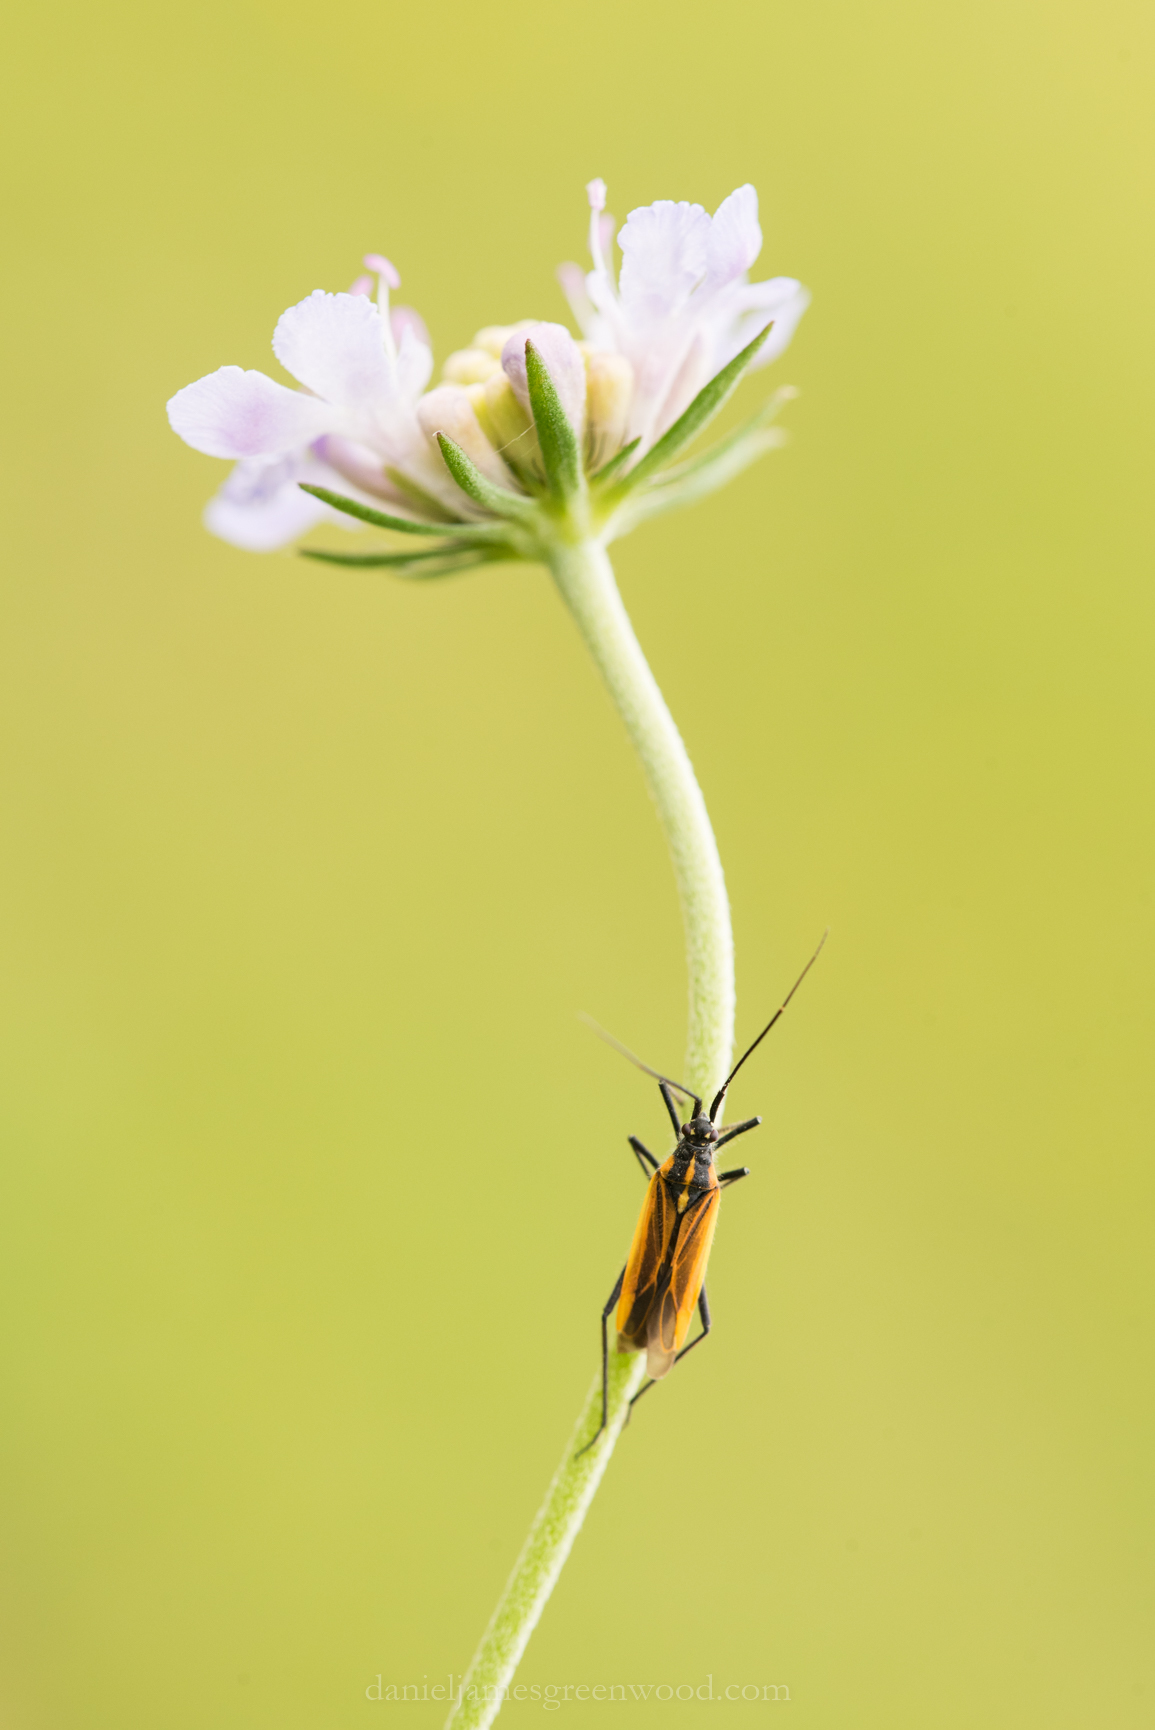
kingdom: Animalia
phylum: Arthropoda
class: Insecta
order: Hemiptera
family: Miridae
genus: Leptopterna
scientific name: Leptopterna dolabrata
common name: Meadow plant bug
